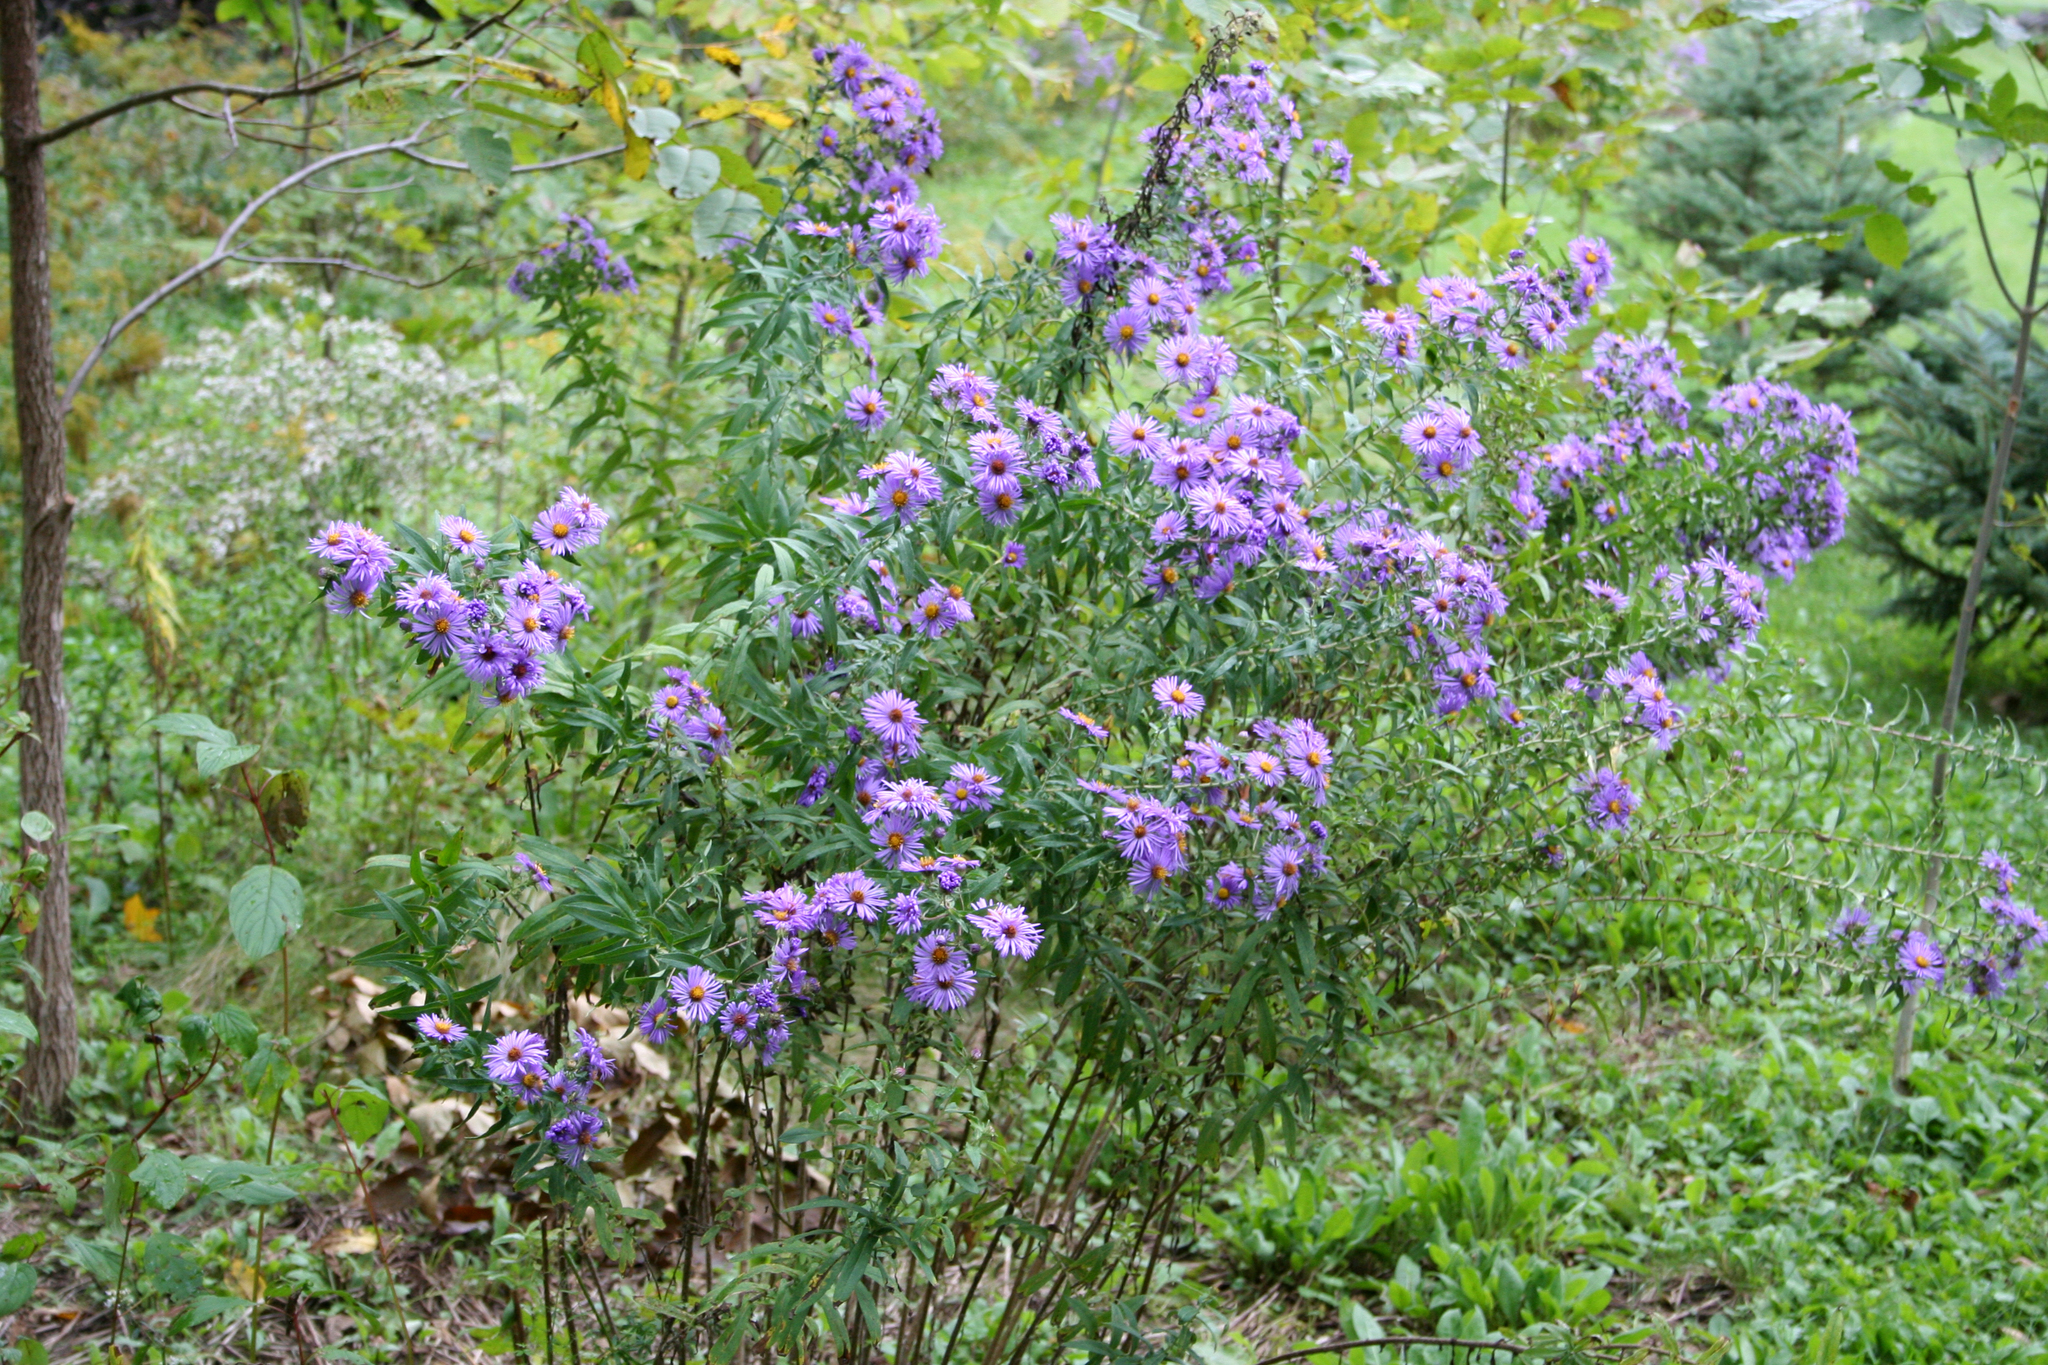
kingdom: Plantae
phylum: Tracheophyta
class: Magnoliopsida
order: Asterales
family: Asteraceae
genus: Symphyotrichum
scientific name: Symphyotrichum novae-angliae
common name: Michaelmas daisy
